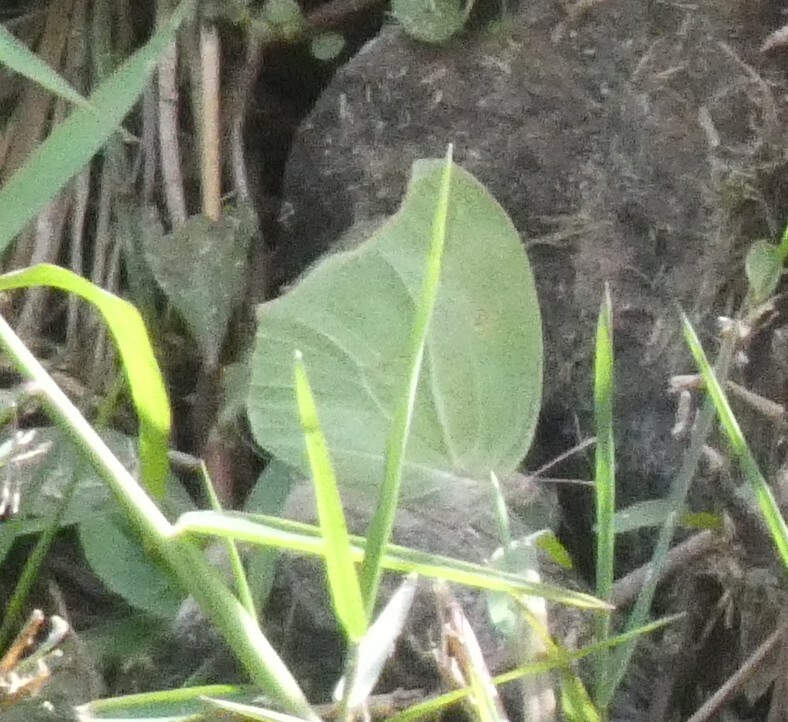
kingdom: Animalia
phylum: Arthropoda
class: Insecta
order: Lepidoptera
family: Pieridae
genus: Anteos
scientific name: Anteos clorinde
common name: White angled sulphur
